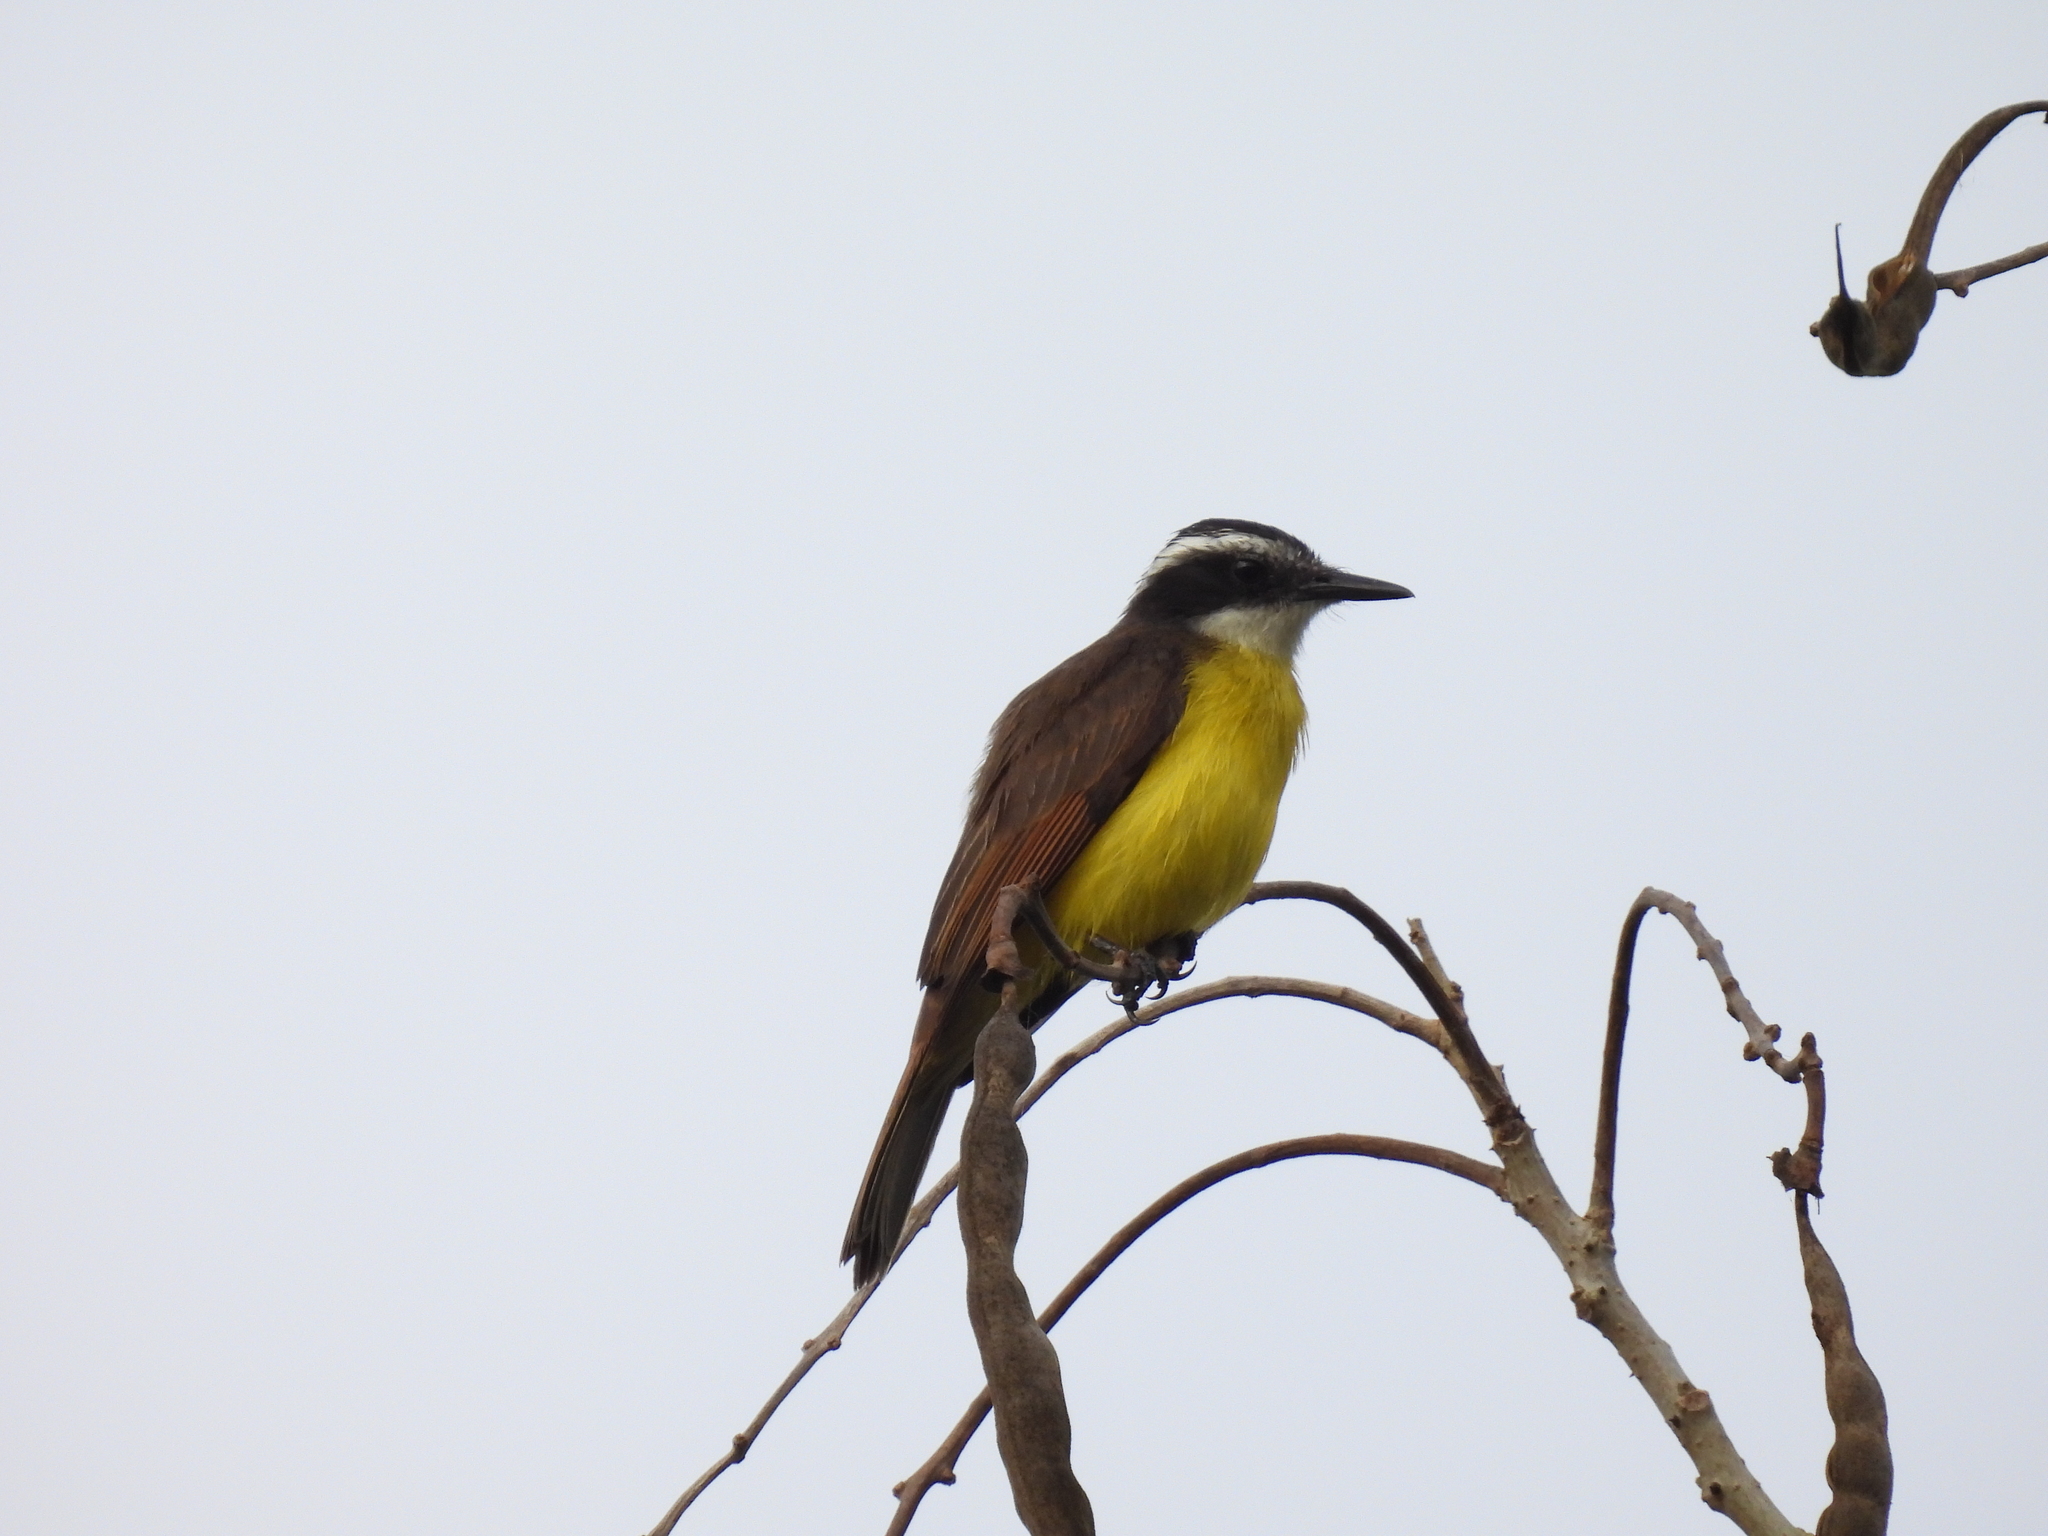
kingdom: Animalia
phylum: Chordata
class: Aves
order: Passeriformes
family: Tyrannidae
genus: Pitangus
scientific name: Pitangus lictor
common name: Lesser kiskadee
